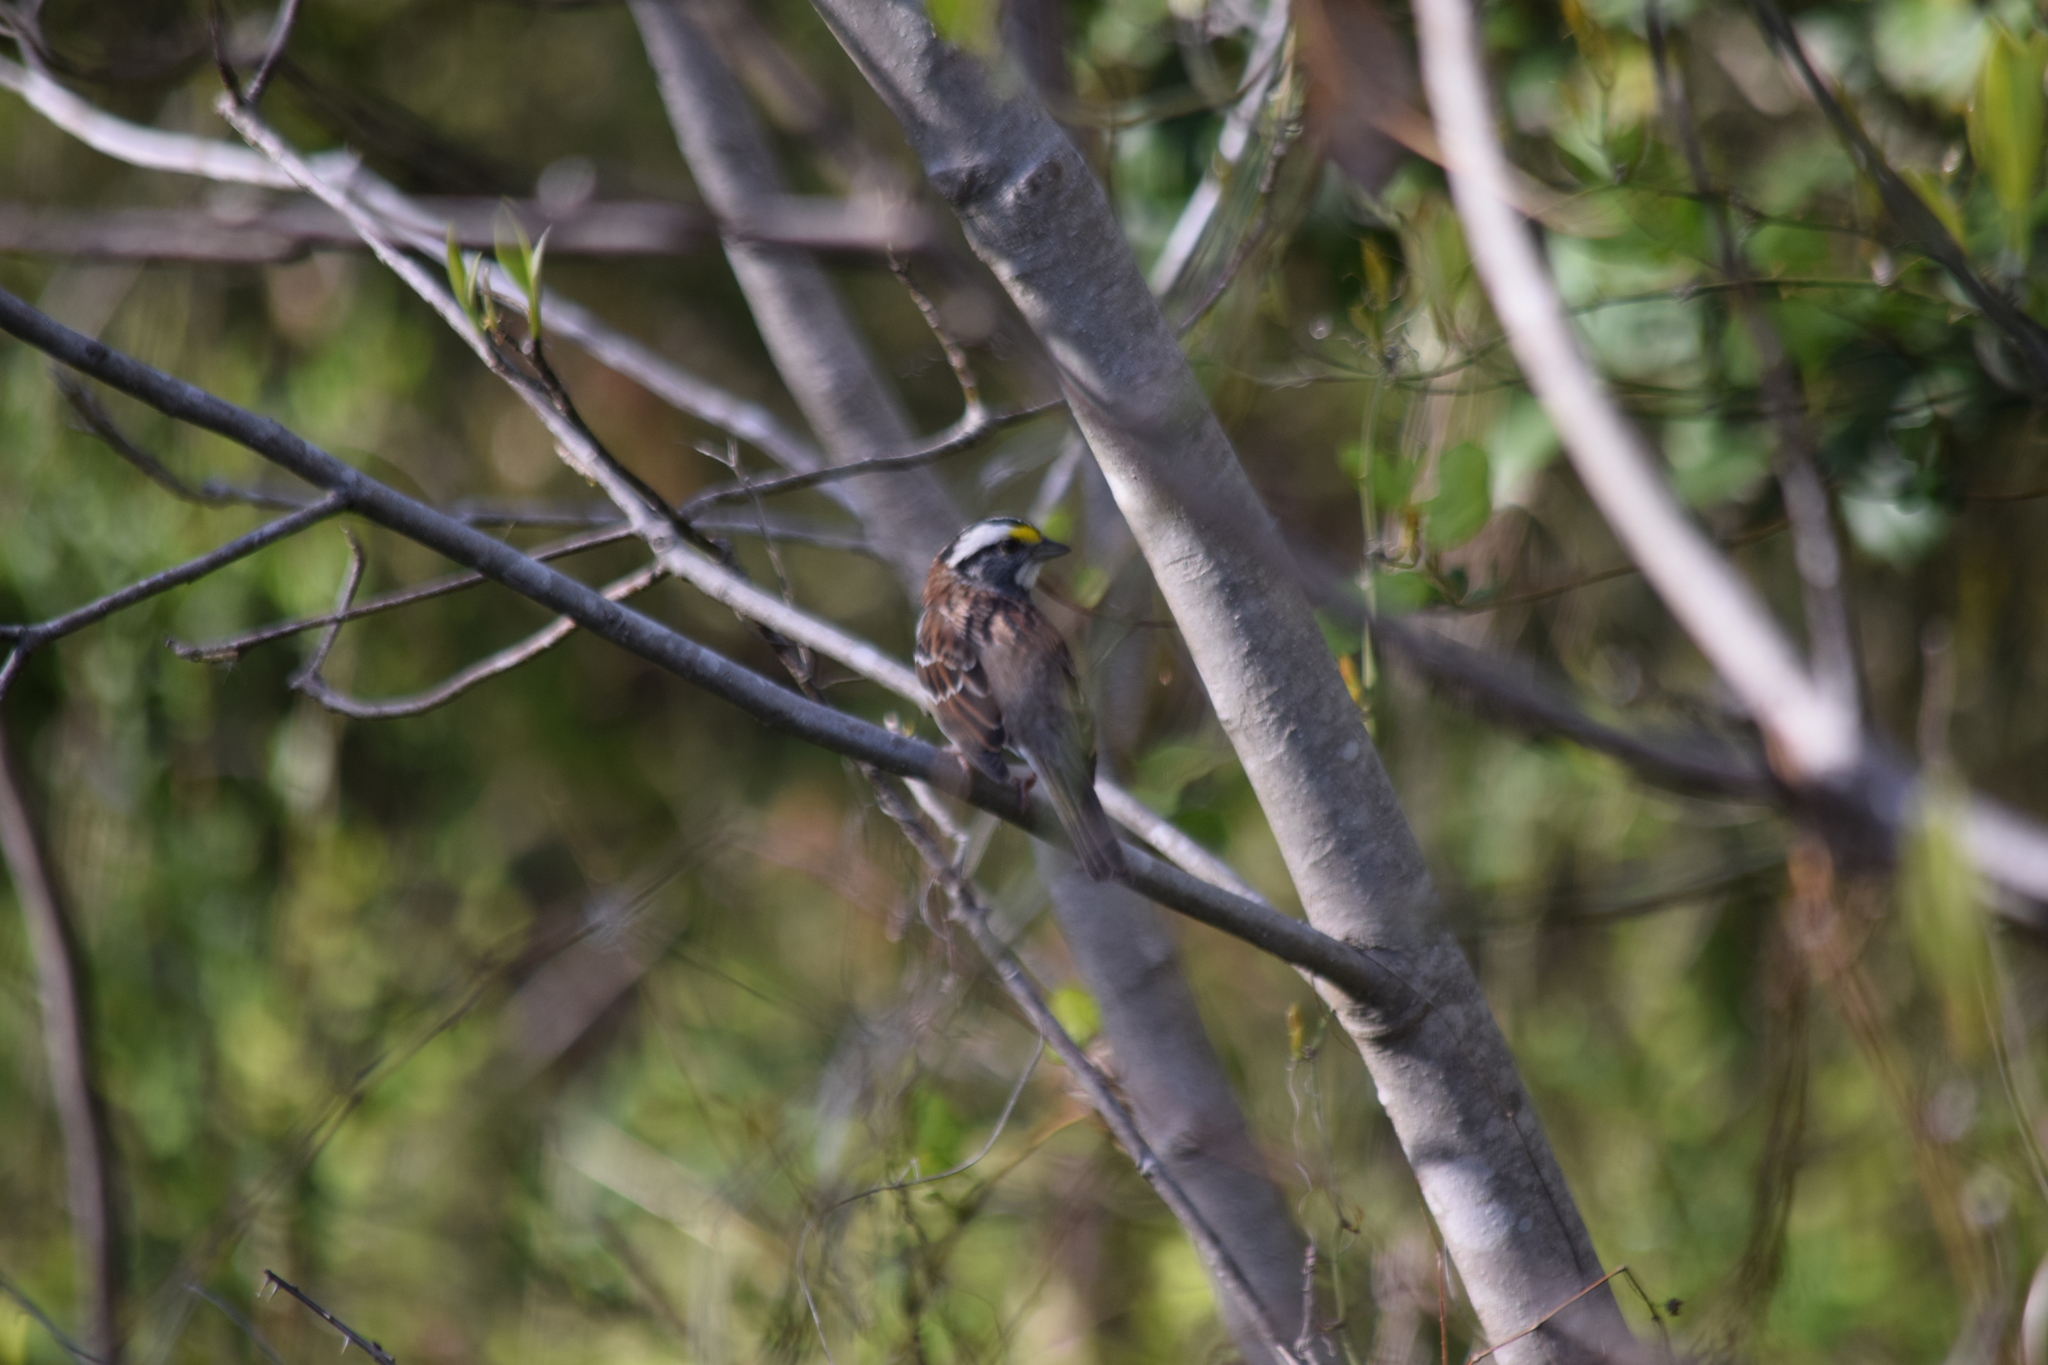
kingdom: Animalia
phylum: Chordata
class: Aves
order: Passeriformes
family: Passerellidae
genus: Zonotrichia
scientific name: Zonotrichia albicollis
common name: White-throated sparrow
